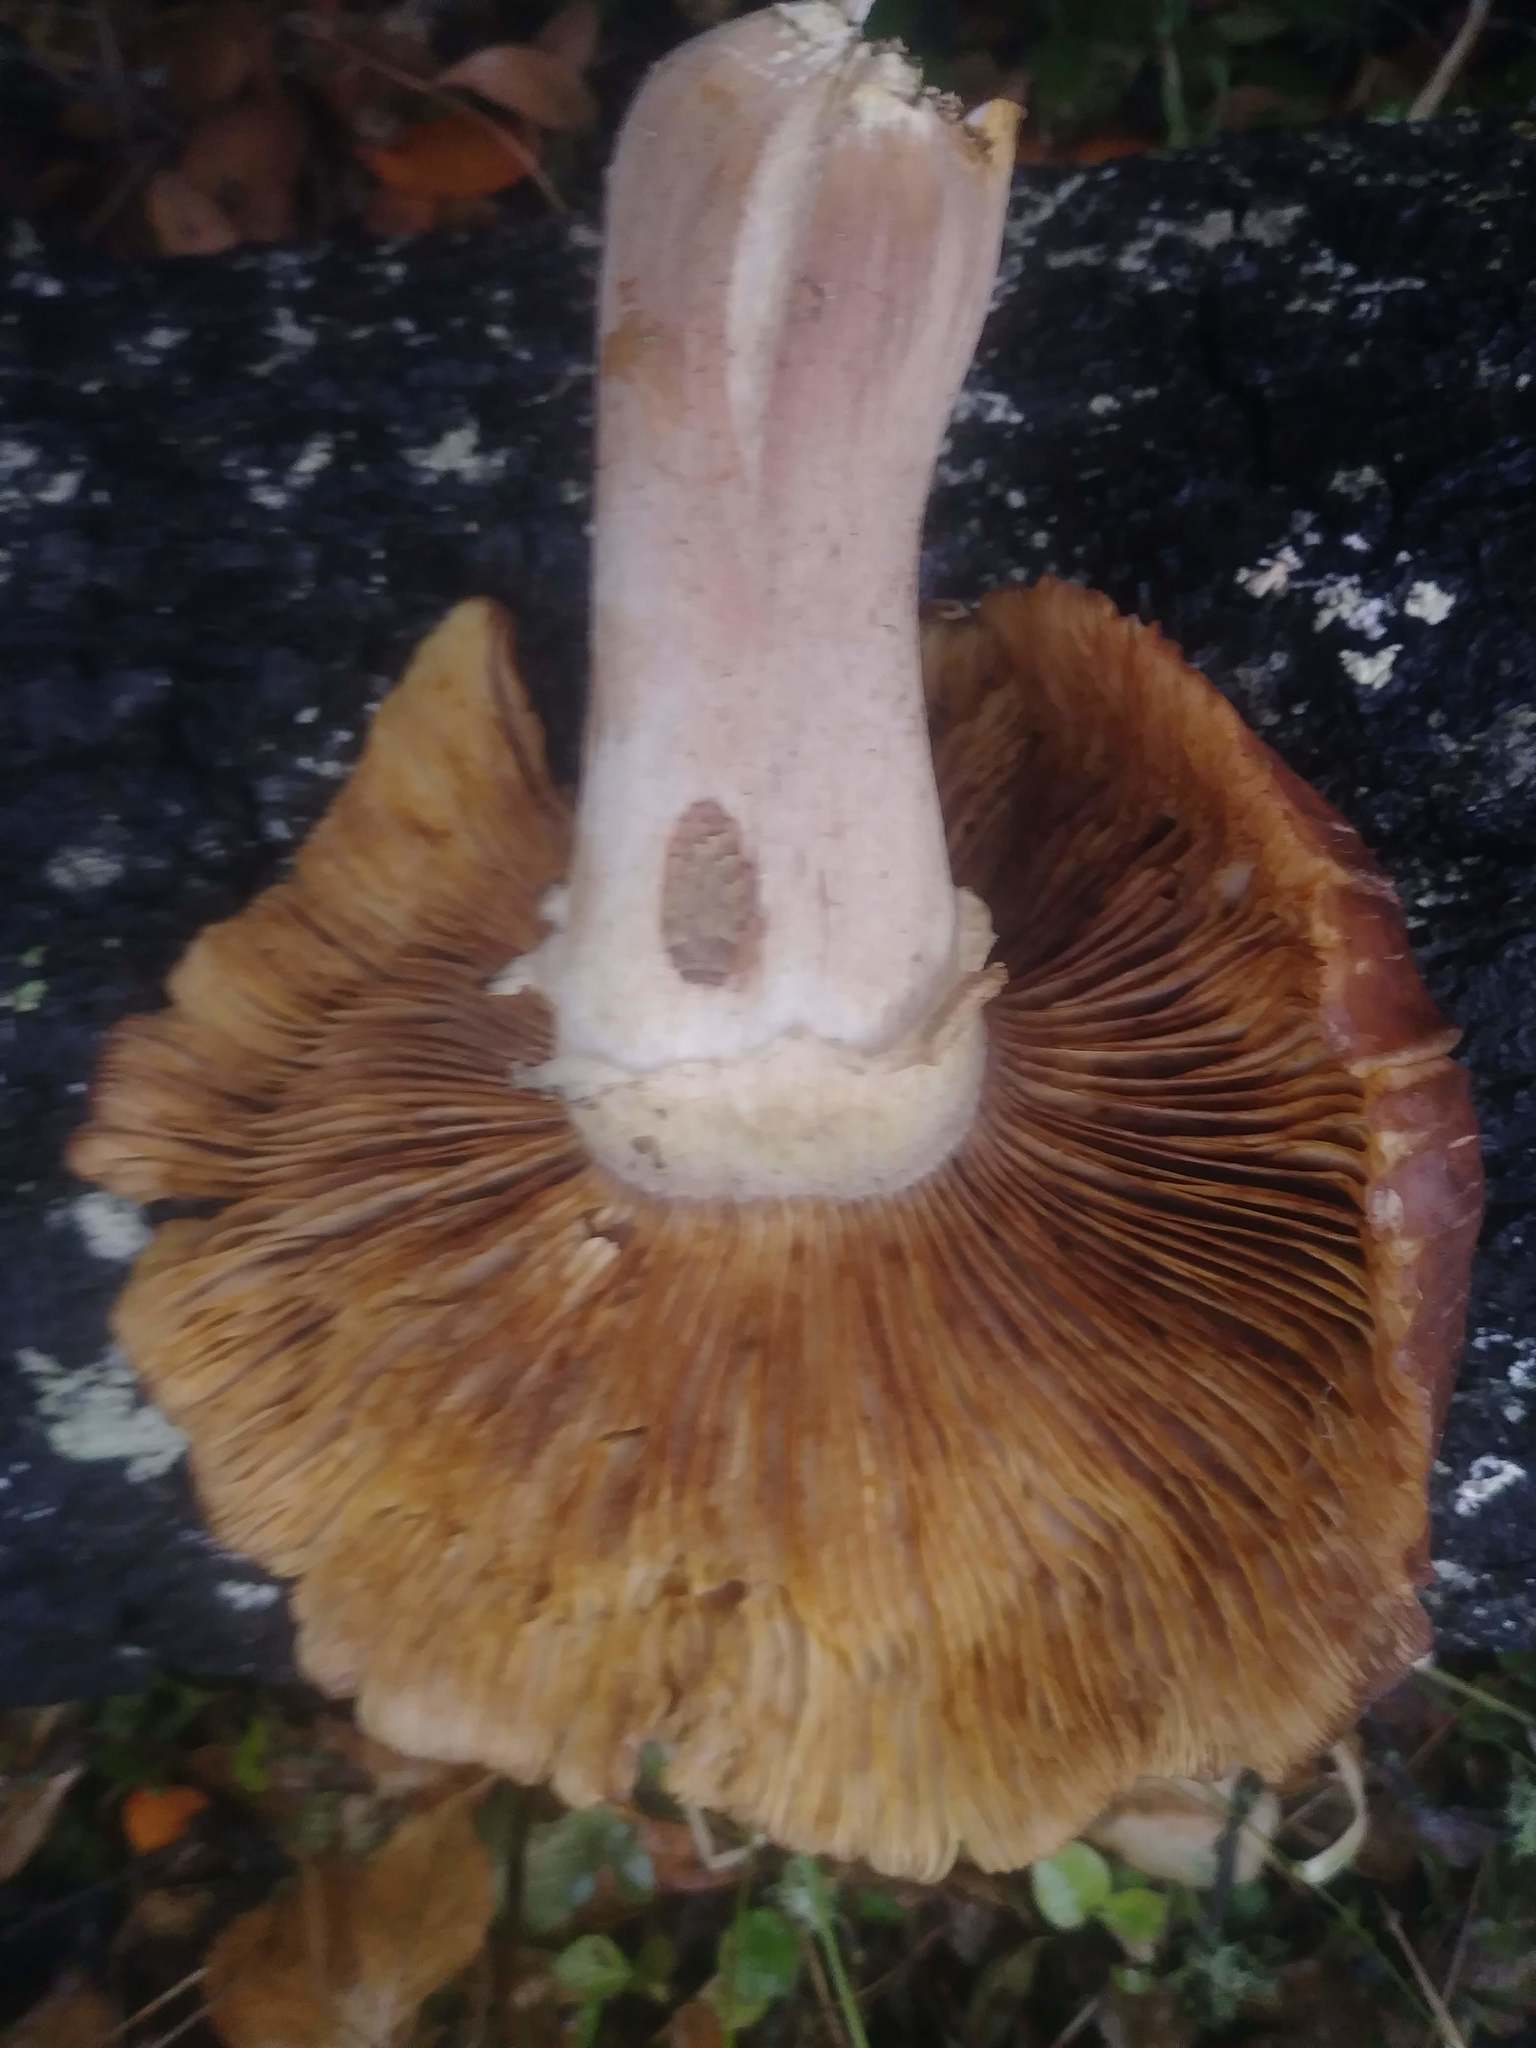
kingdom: Fungi
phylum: Basidiomycota
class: Agaricomycetes
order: Agaricales
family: Physalacriaceae
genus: Armillaria
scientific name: Armillaria mellea
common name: Honey fungus
